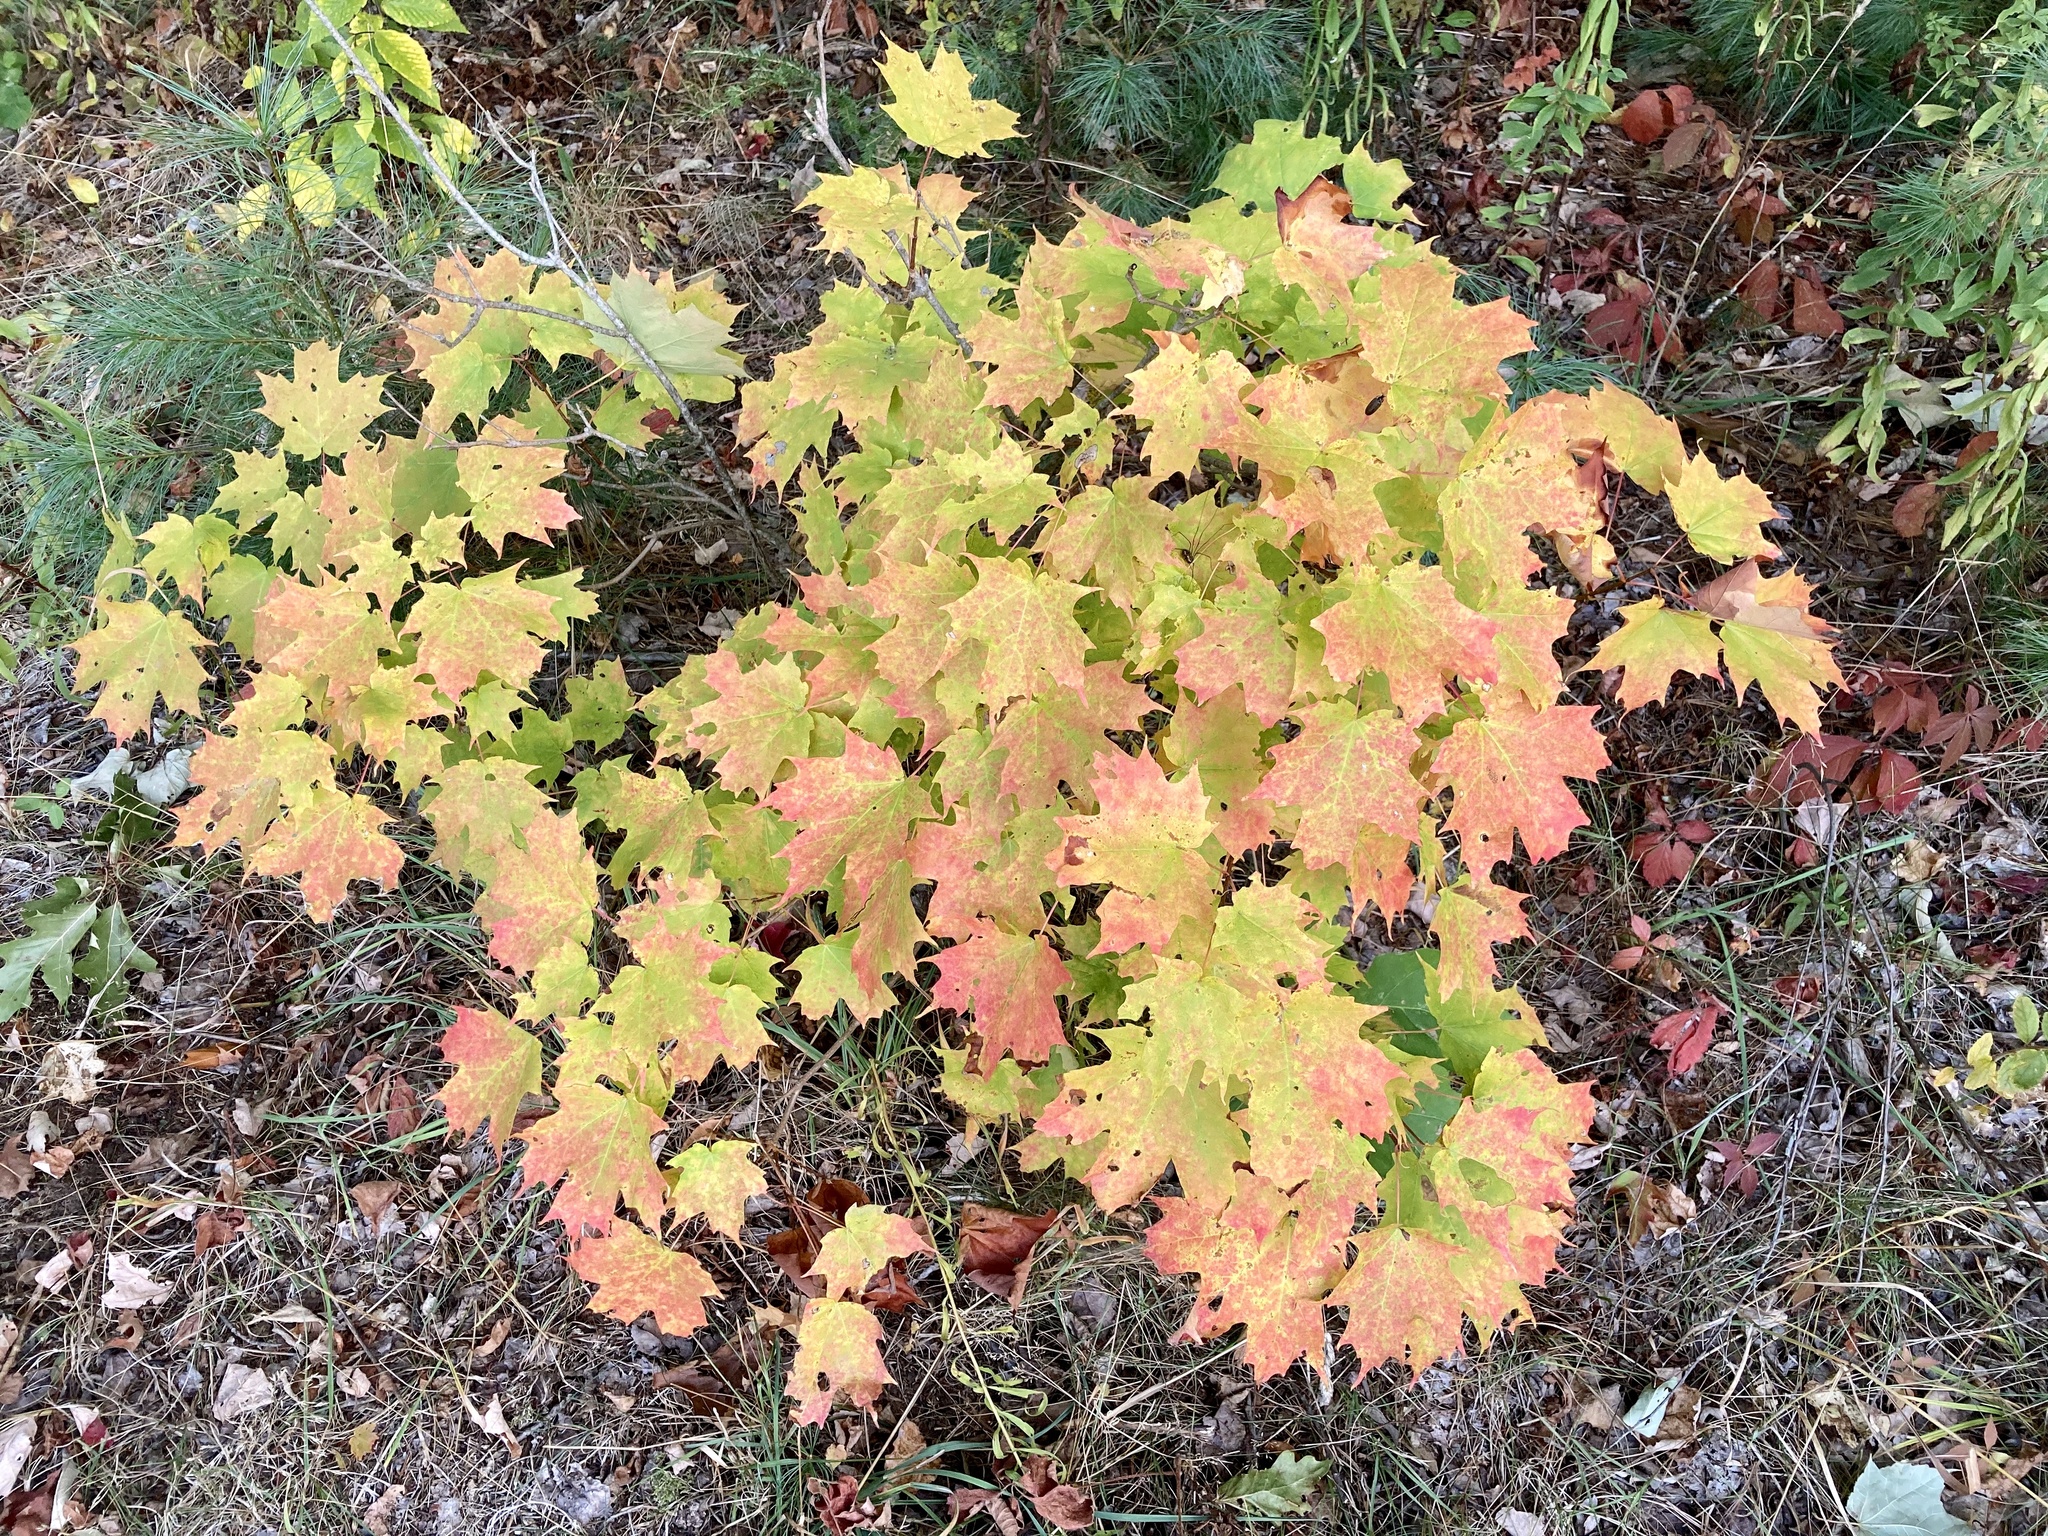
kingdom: Plantae
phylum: Tracheophyta
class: Magnoliopsida
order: Sapindales
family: Sapindaceae
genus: Acer
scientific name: Acer saccharum
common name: Sugar maple
